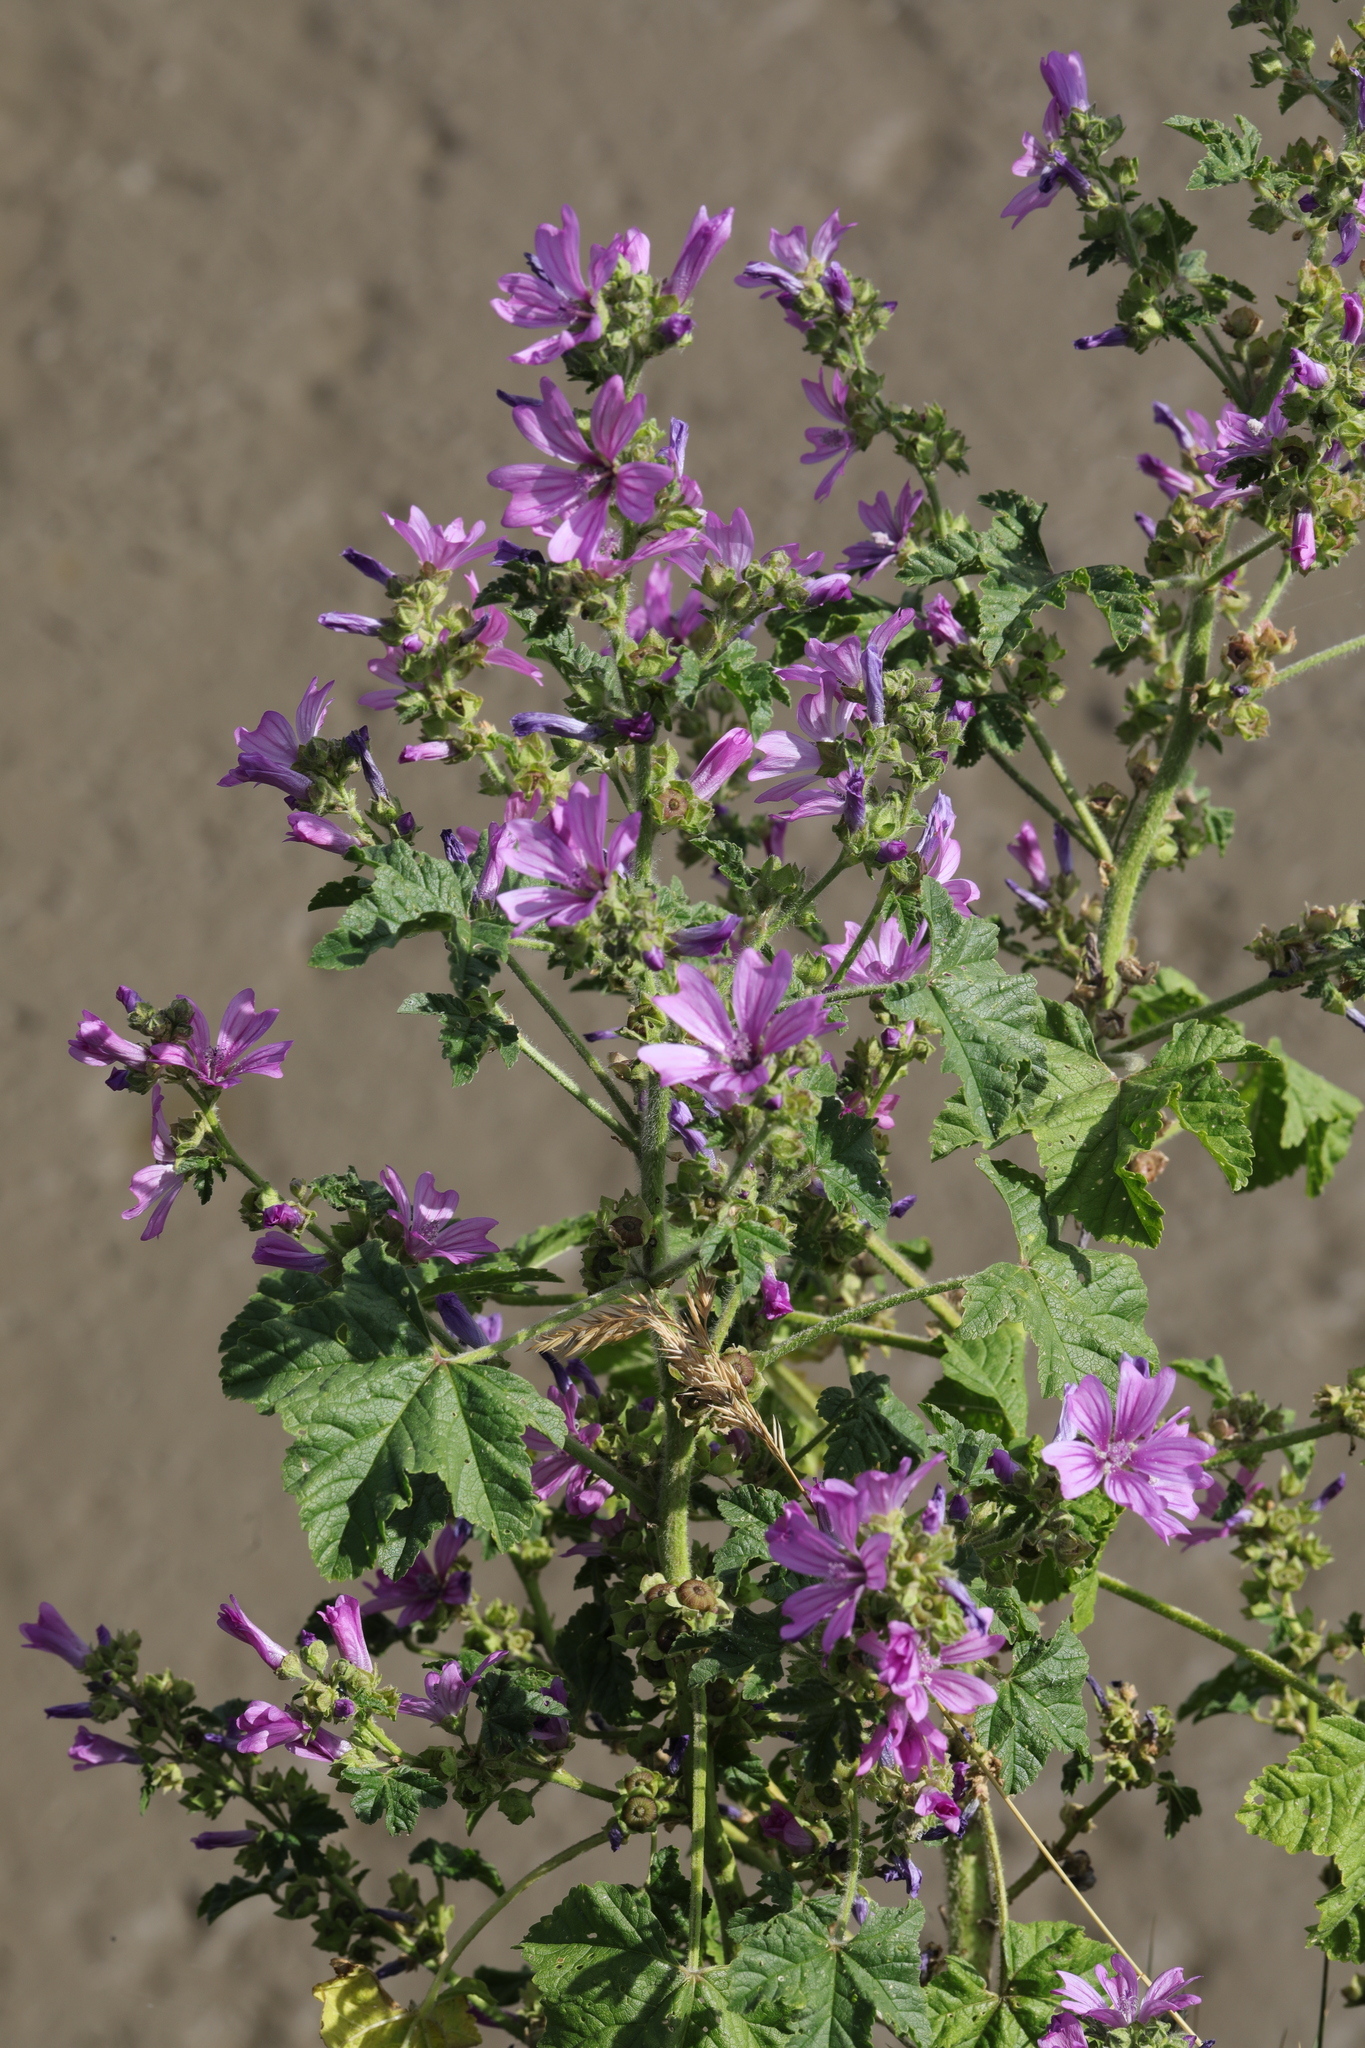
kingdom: Plantae
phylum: Tracheophyta
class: Magnoliopsida
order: Malvales
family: Malvaceae
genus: Malva
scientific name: Malva sylvestris
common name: Common mallow
